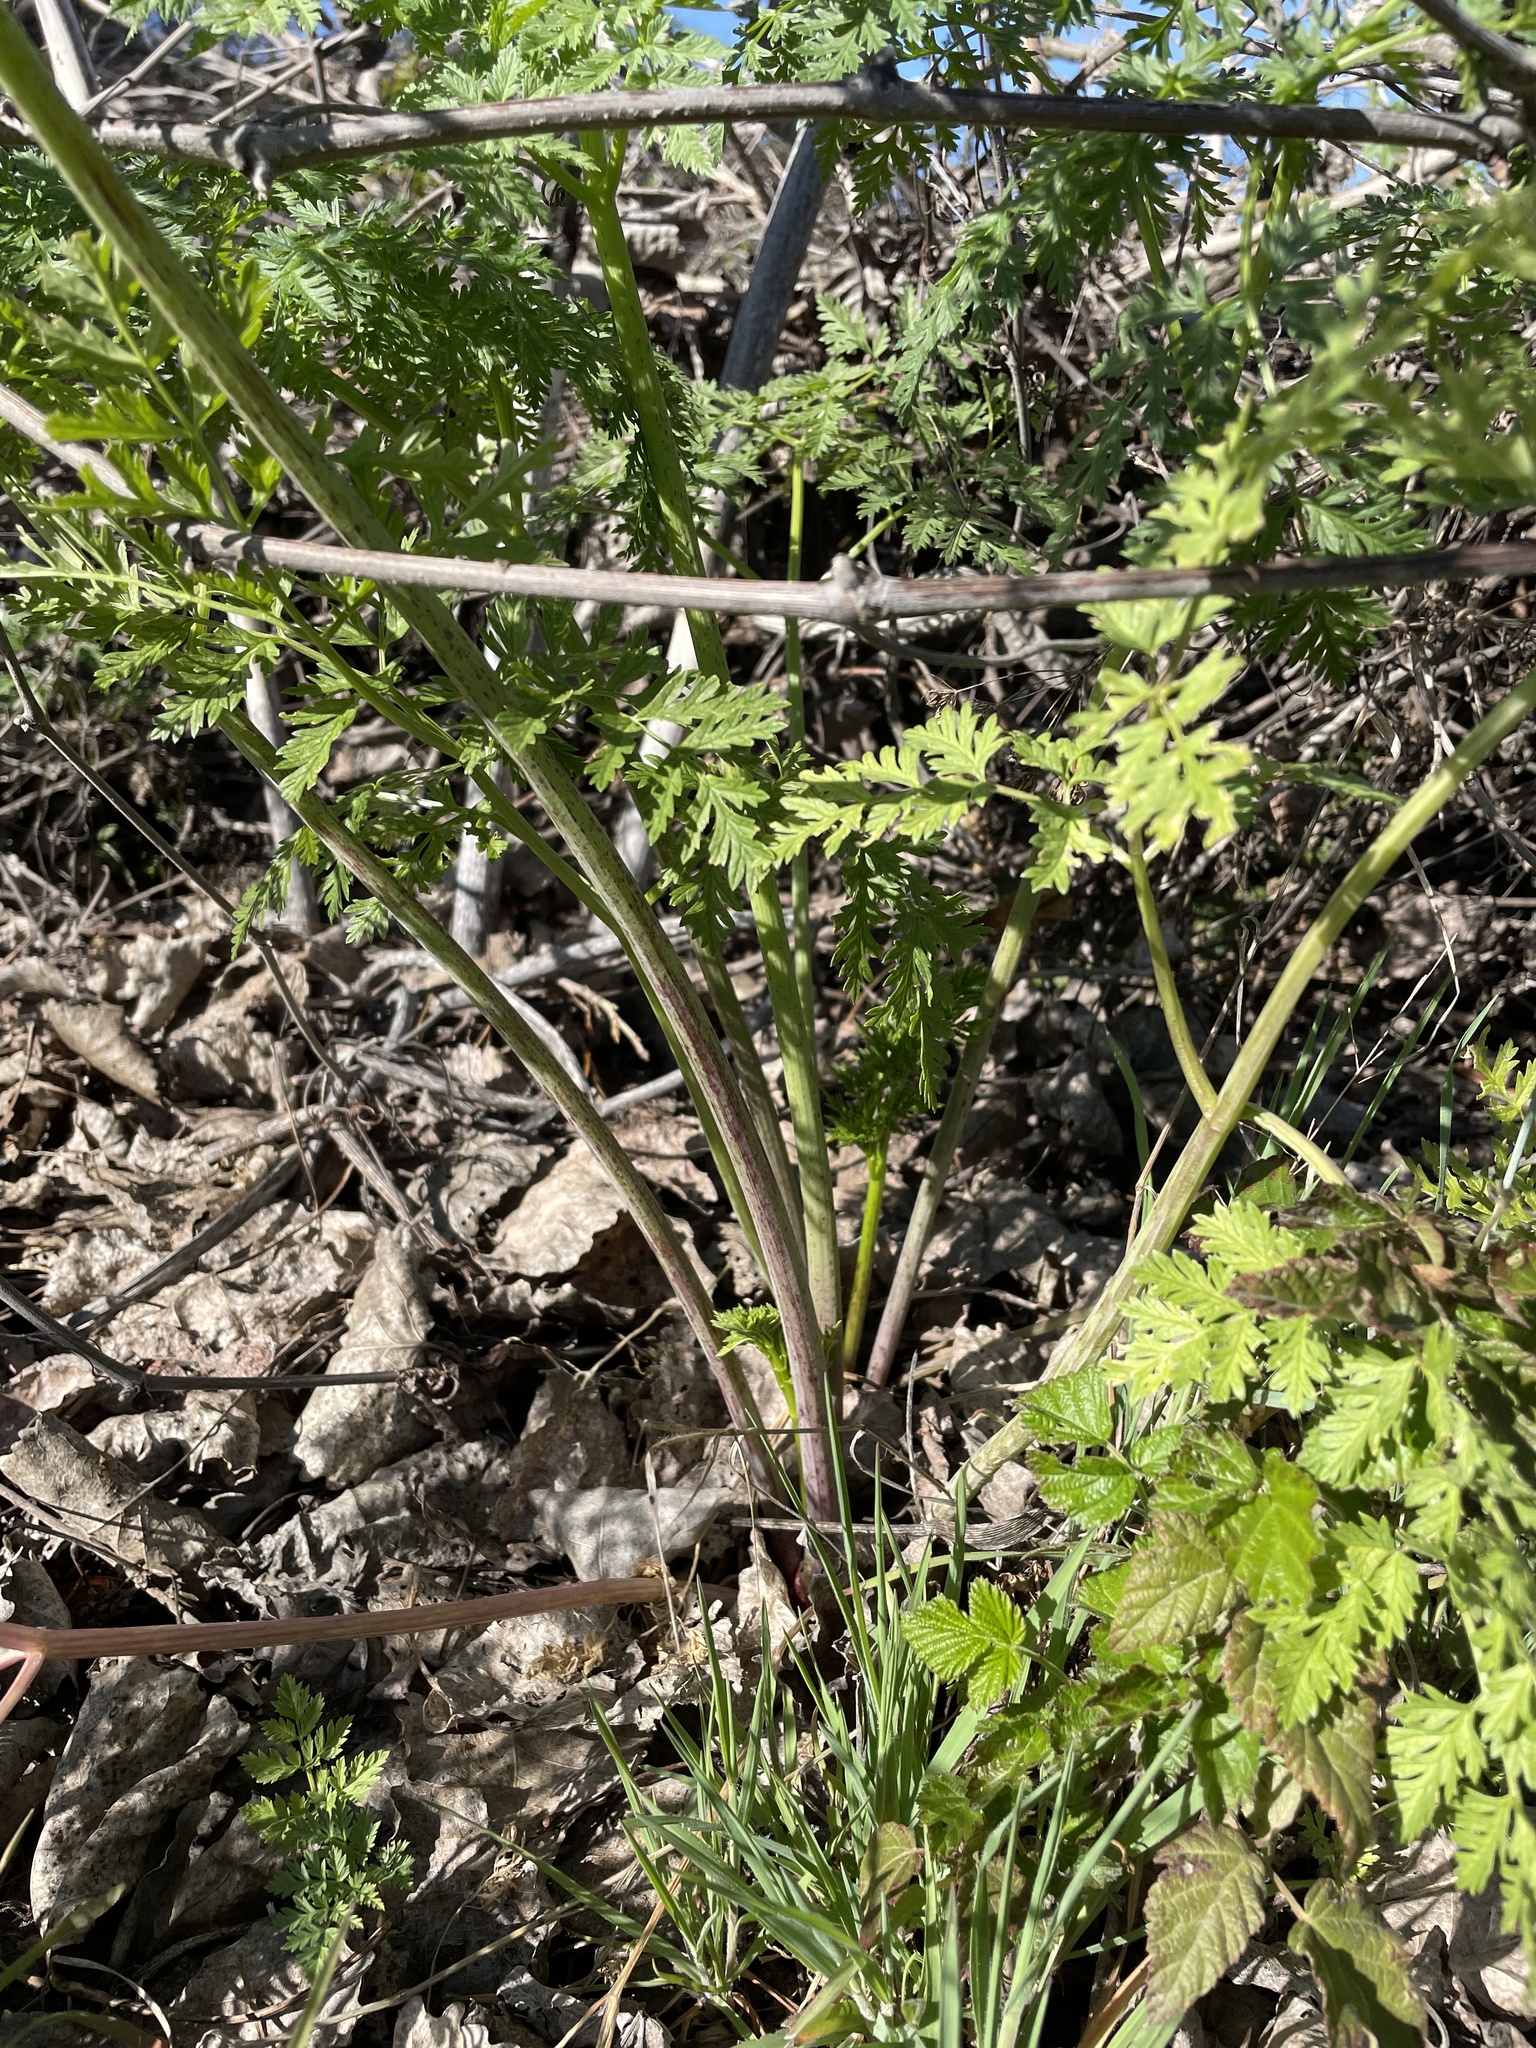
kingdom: Plantae
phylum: Tracheophyta
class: Magnoliopsida
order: Apiales
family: Apiaceae
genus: Conium
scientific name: Conium maculatum
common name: Hemlock
